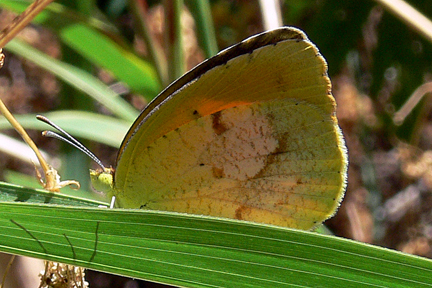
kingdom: Animalia
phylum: Arthropoda
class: Insecta
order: Lepidoptera
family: Pieridae
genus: Abaeis
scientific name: Abaeis nicippe
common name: Sleepy orange
